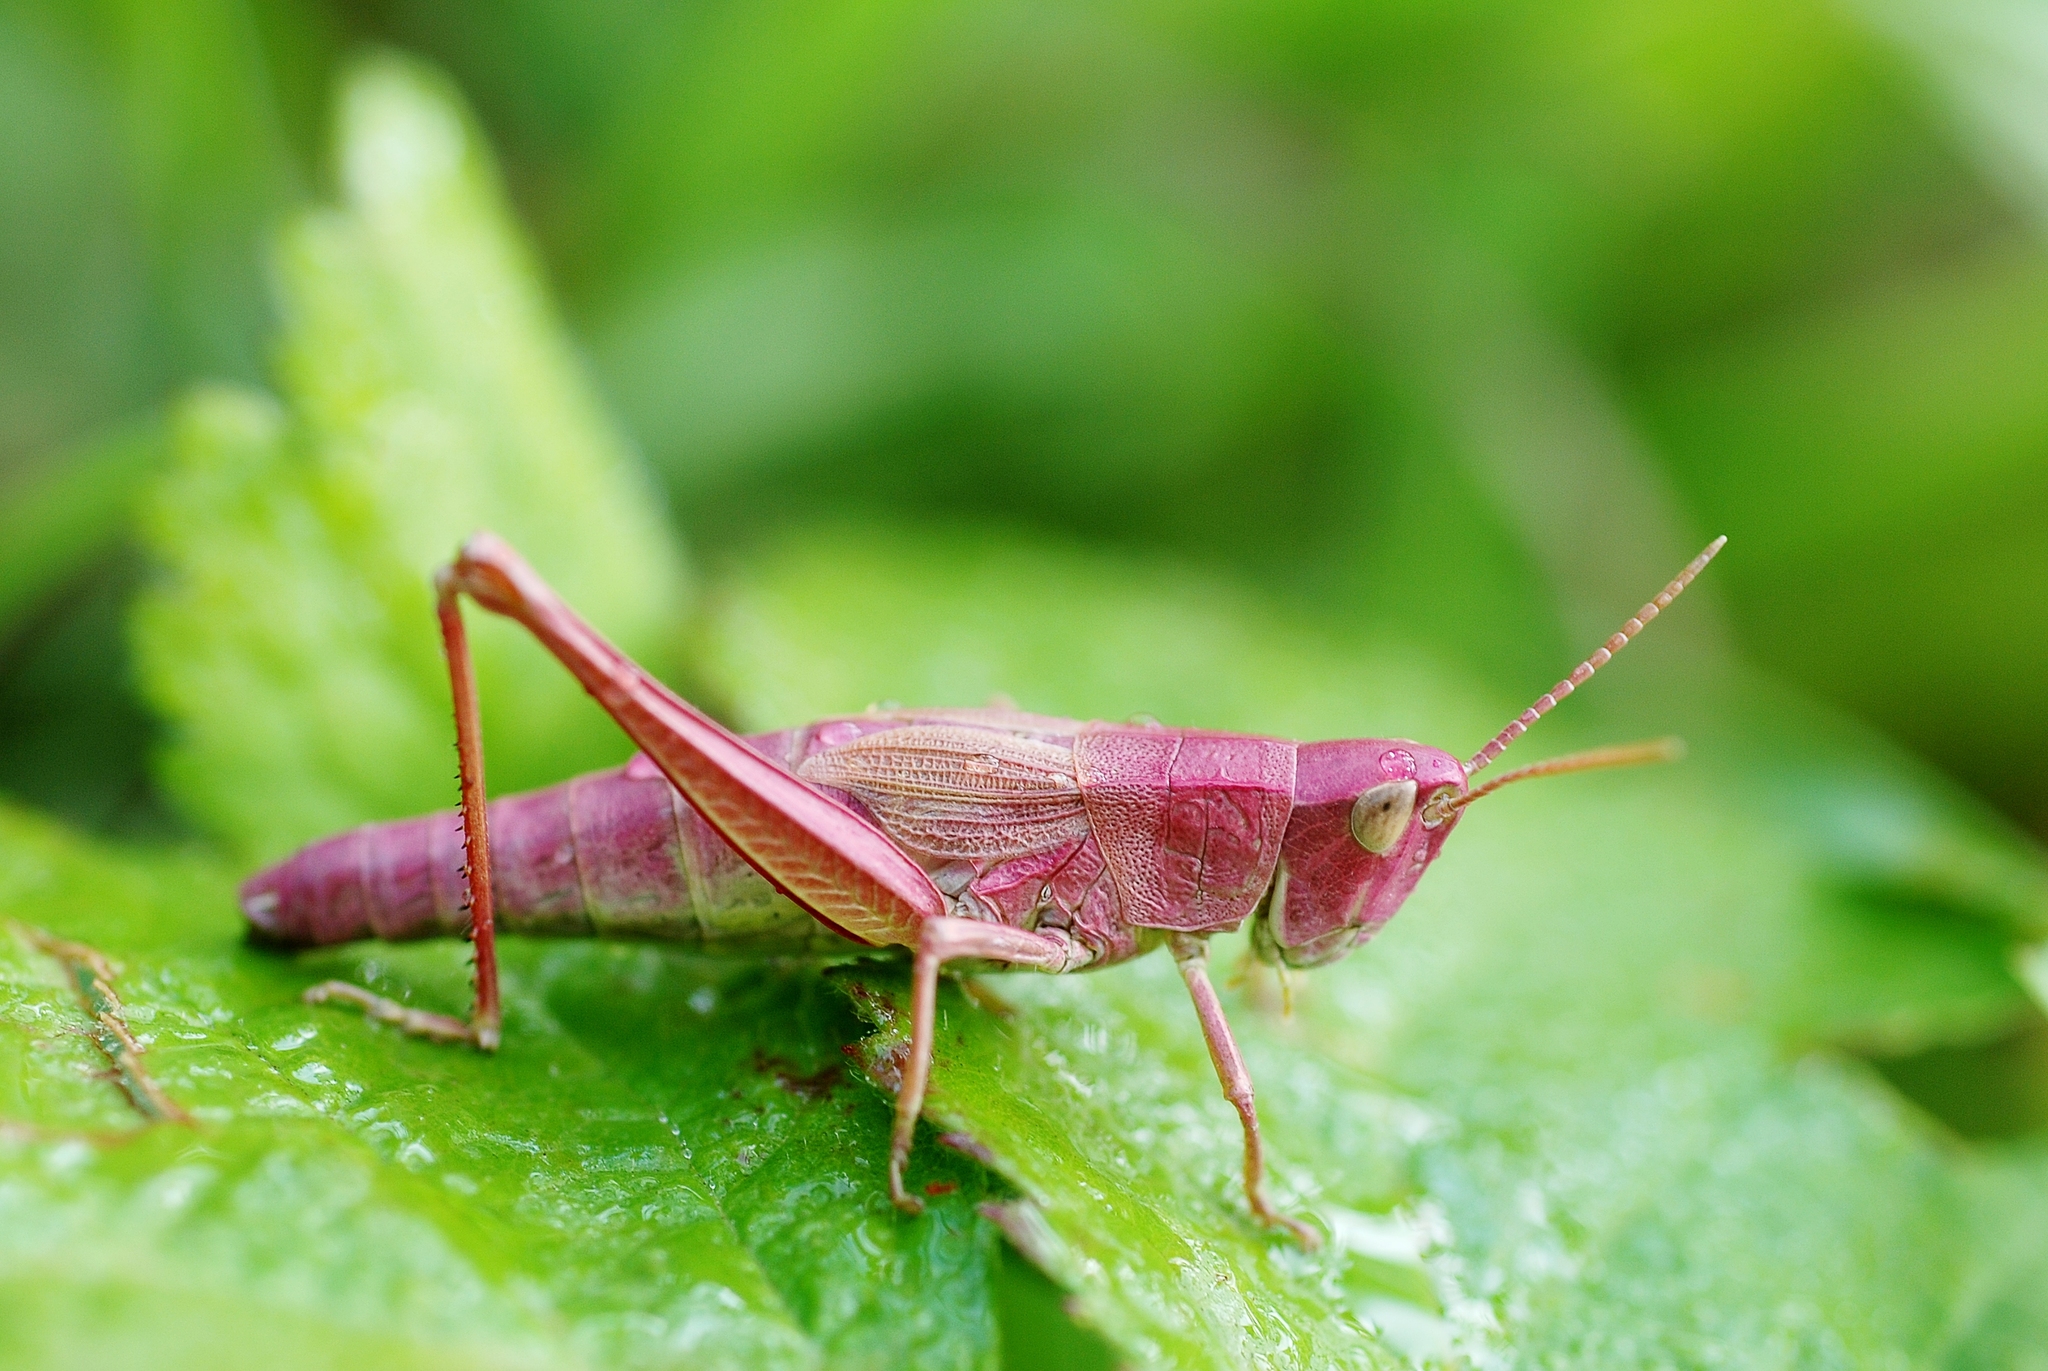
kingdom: Animalia
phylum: Arthropoda
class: Insecta
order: Orthoptera
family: Acrididae
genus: Chrysochraon
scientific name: Chrysochraon dispar
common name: Large gold grasshopper
